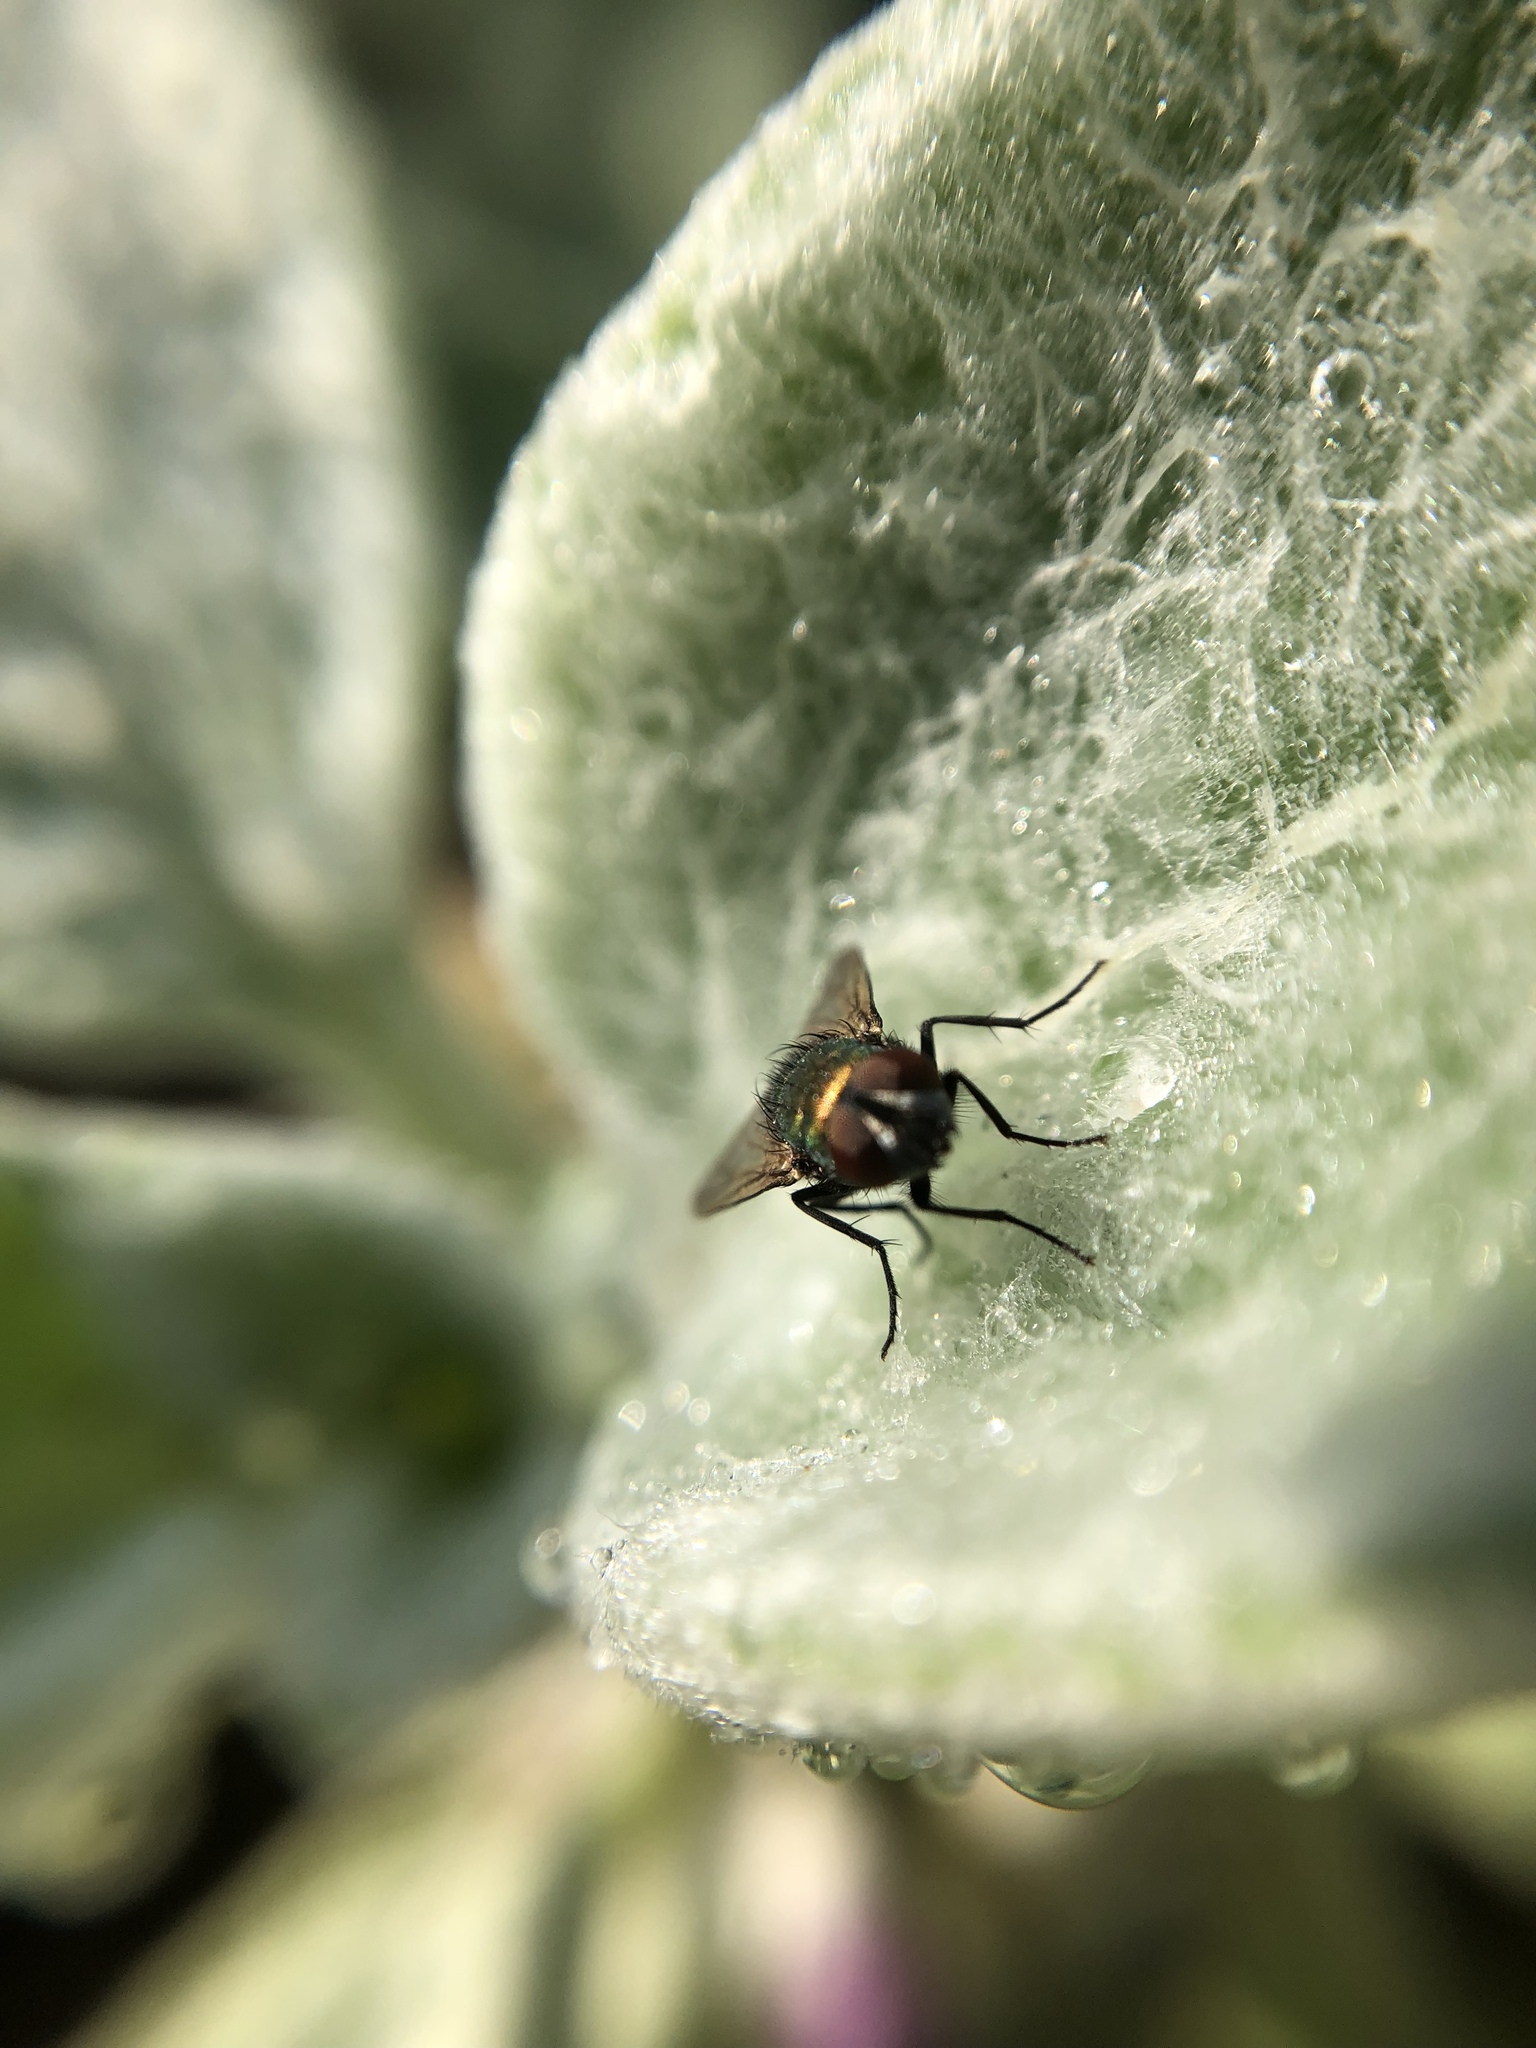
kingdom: Animalia
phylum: Arthropoda
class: Insecta
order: Diptera
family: Calliphoridae
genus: Lucilia
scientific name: Lucilia sericata
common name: Blow fly
